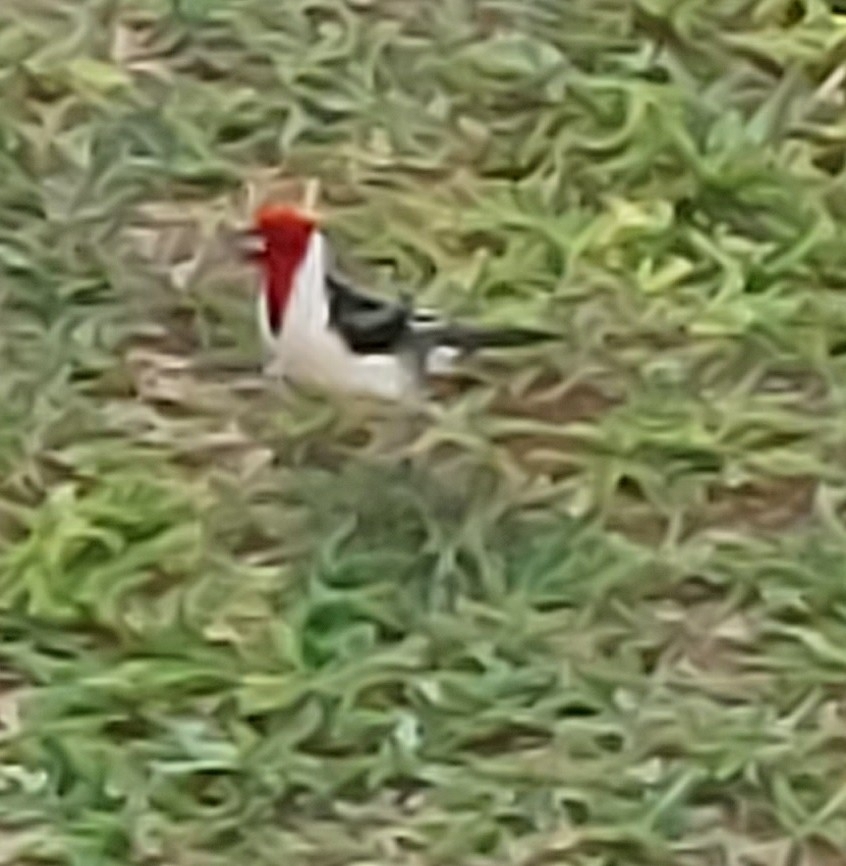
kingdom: Animalia
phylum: Chordata
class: Aves
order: Passeriformes
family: Thraupidae
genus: Paroaria
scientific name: Paroaria dominicana
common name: Red-cowled cardinal
